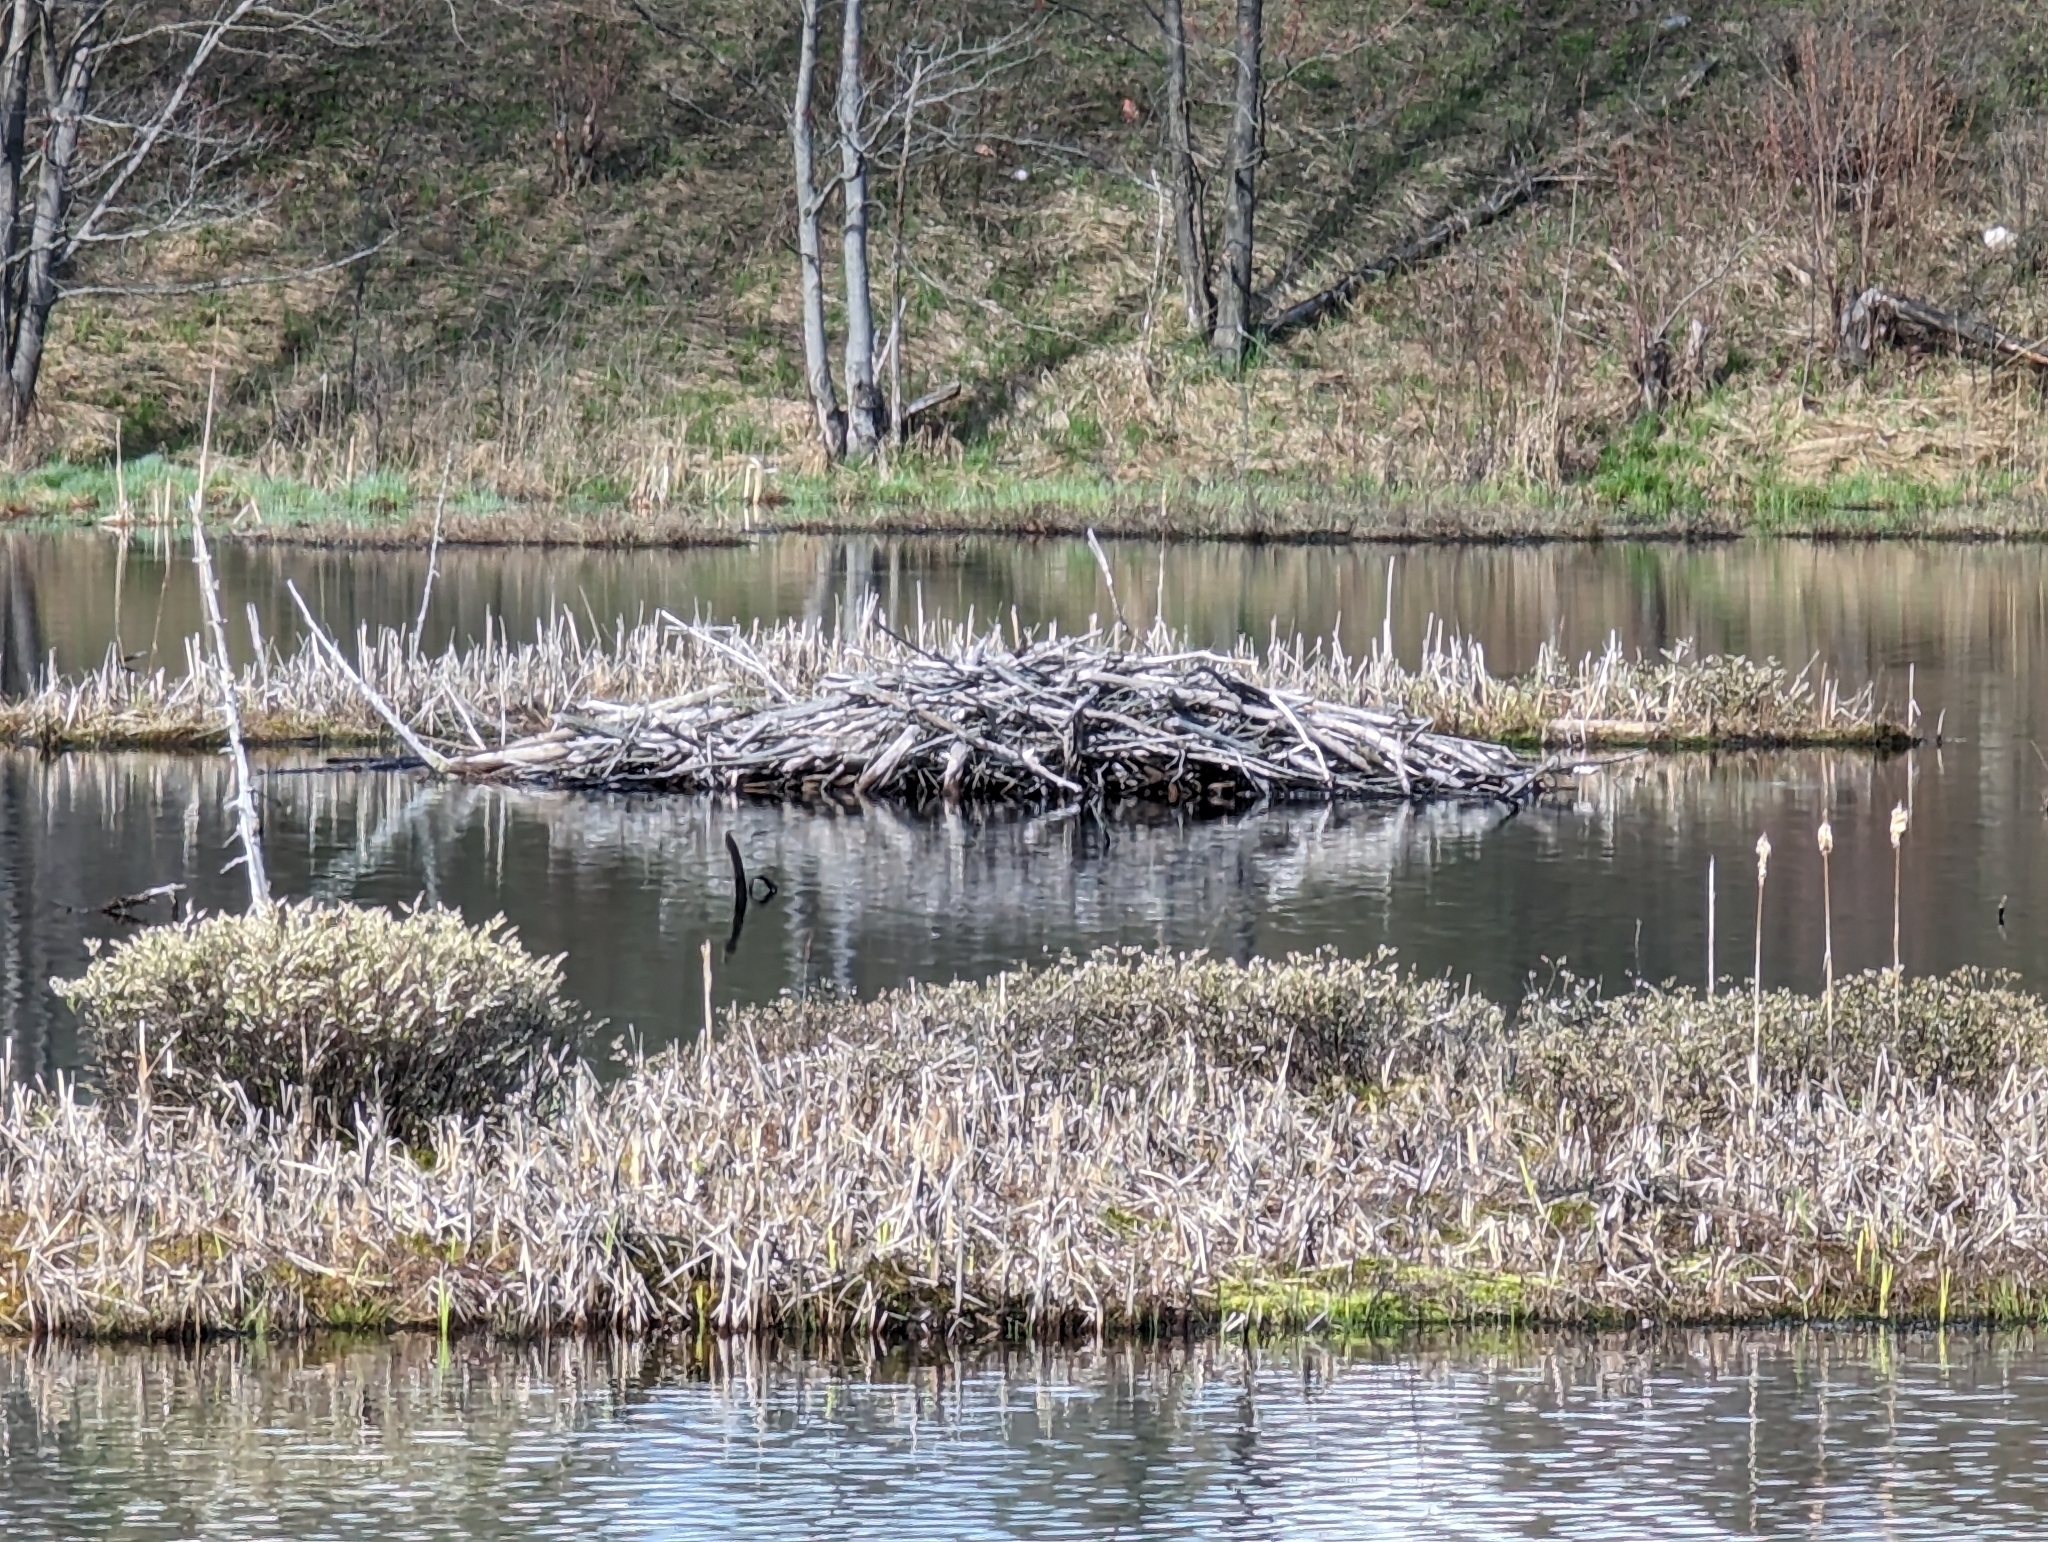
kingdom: Animalia
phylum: Chordata
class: Mammalia
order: Rodentia
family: Castoridae
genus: Castor
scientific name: Castor canadensis
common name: American beaver
